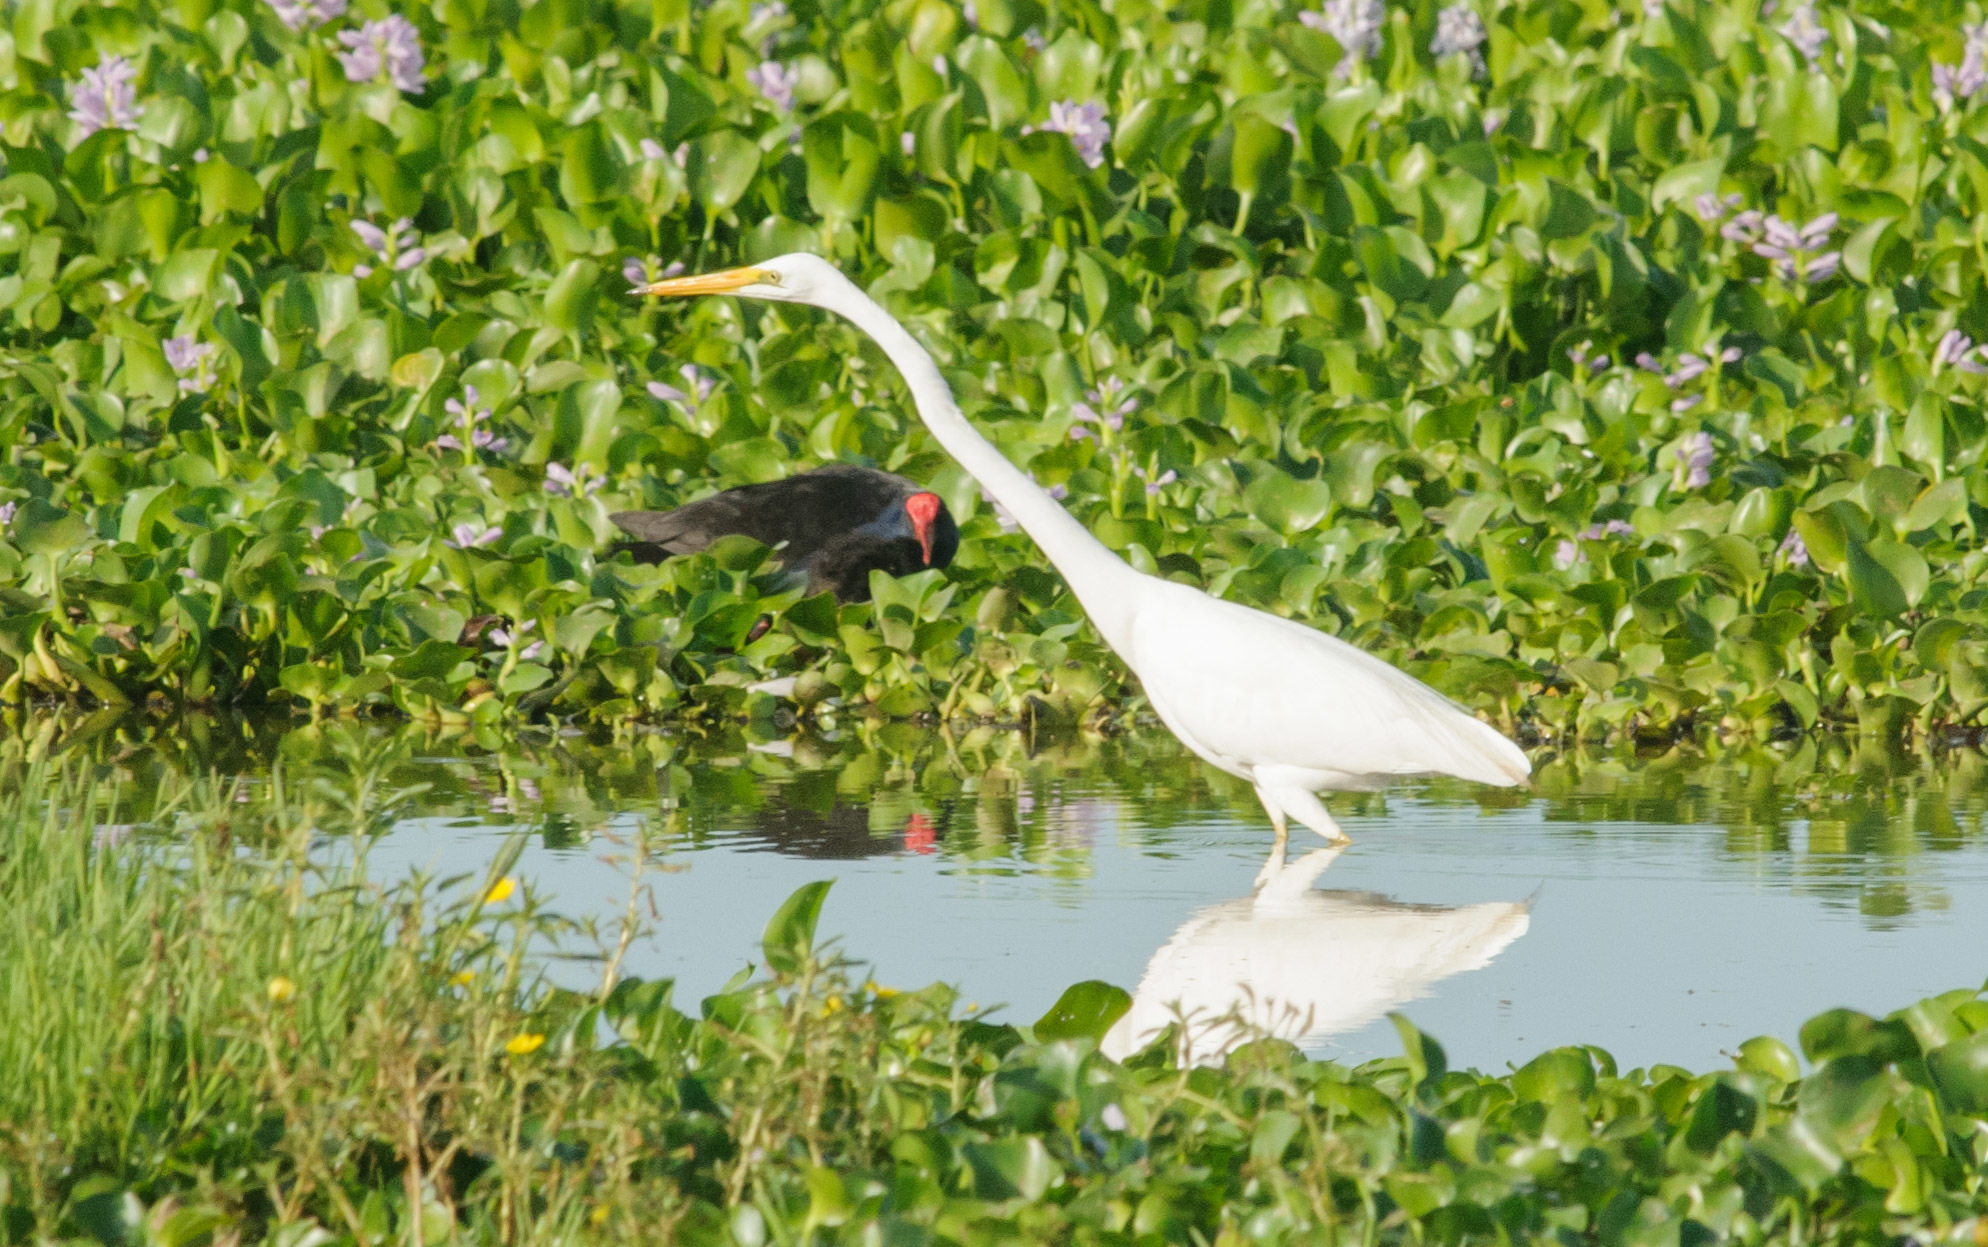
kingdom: Animalia
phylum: Chordata
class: Aves
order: Pelecaniformes
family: Ardeidae
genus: Ardea
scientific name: Ardea modesta
